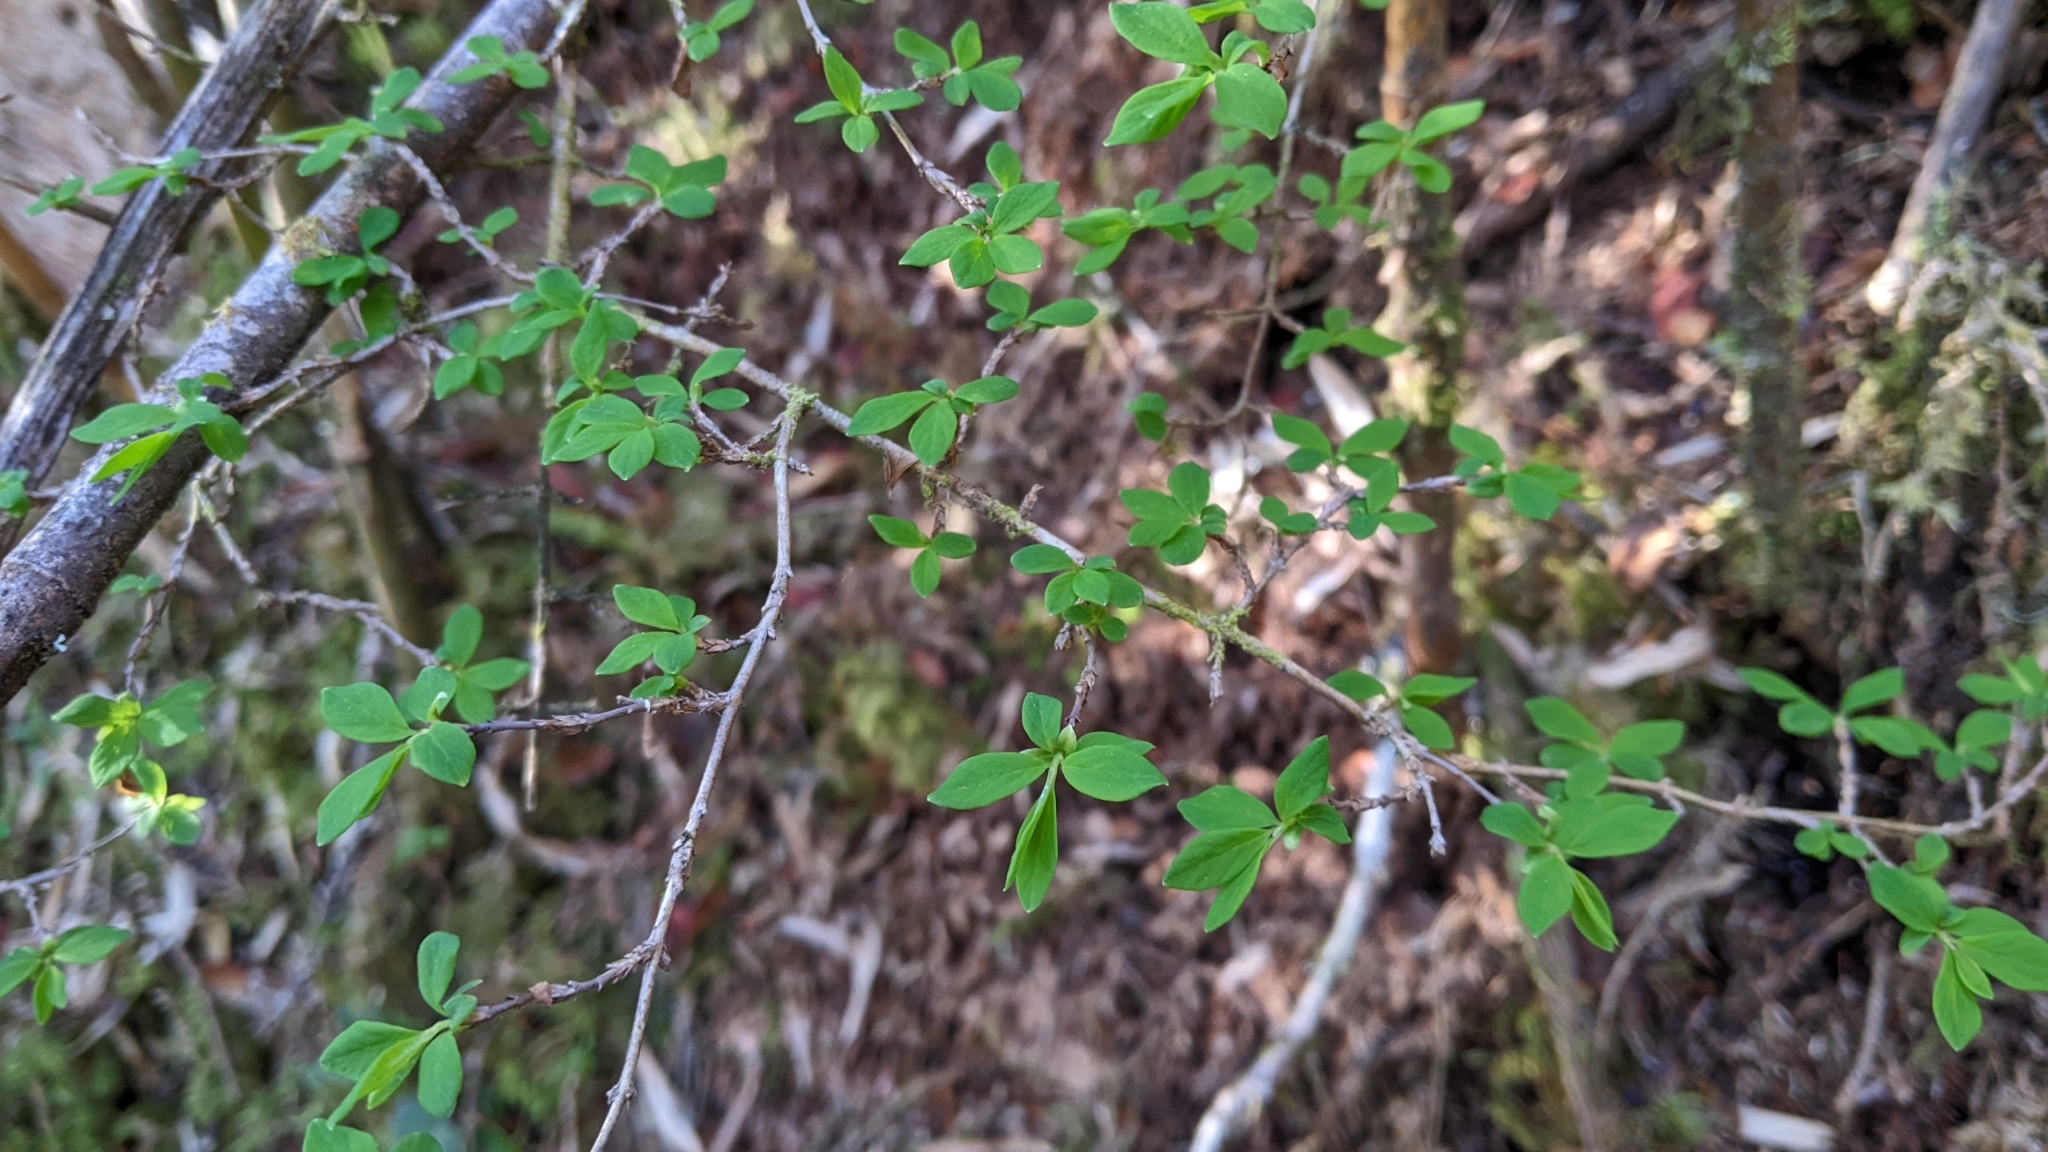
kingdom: Plantae
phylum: Tracheophyta
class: Magnoliopsida
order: Dipsacales
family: Caprifoliaceae
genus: Lonicera
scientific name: Lonicera kawakamii
